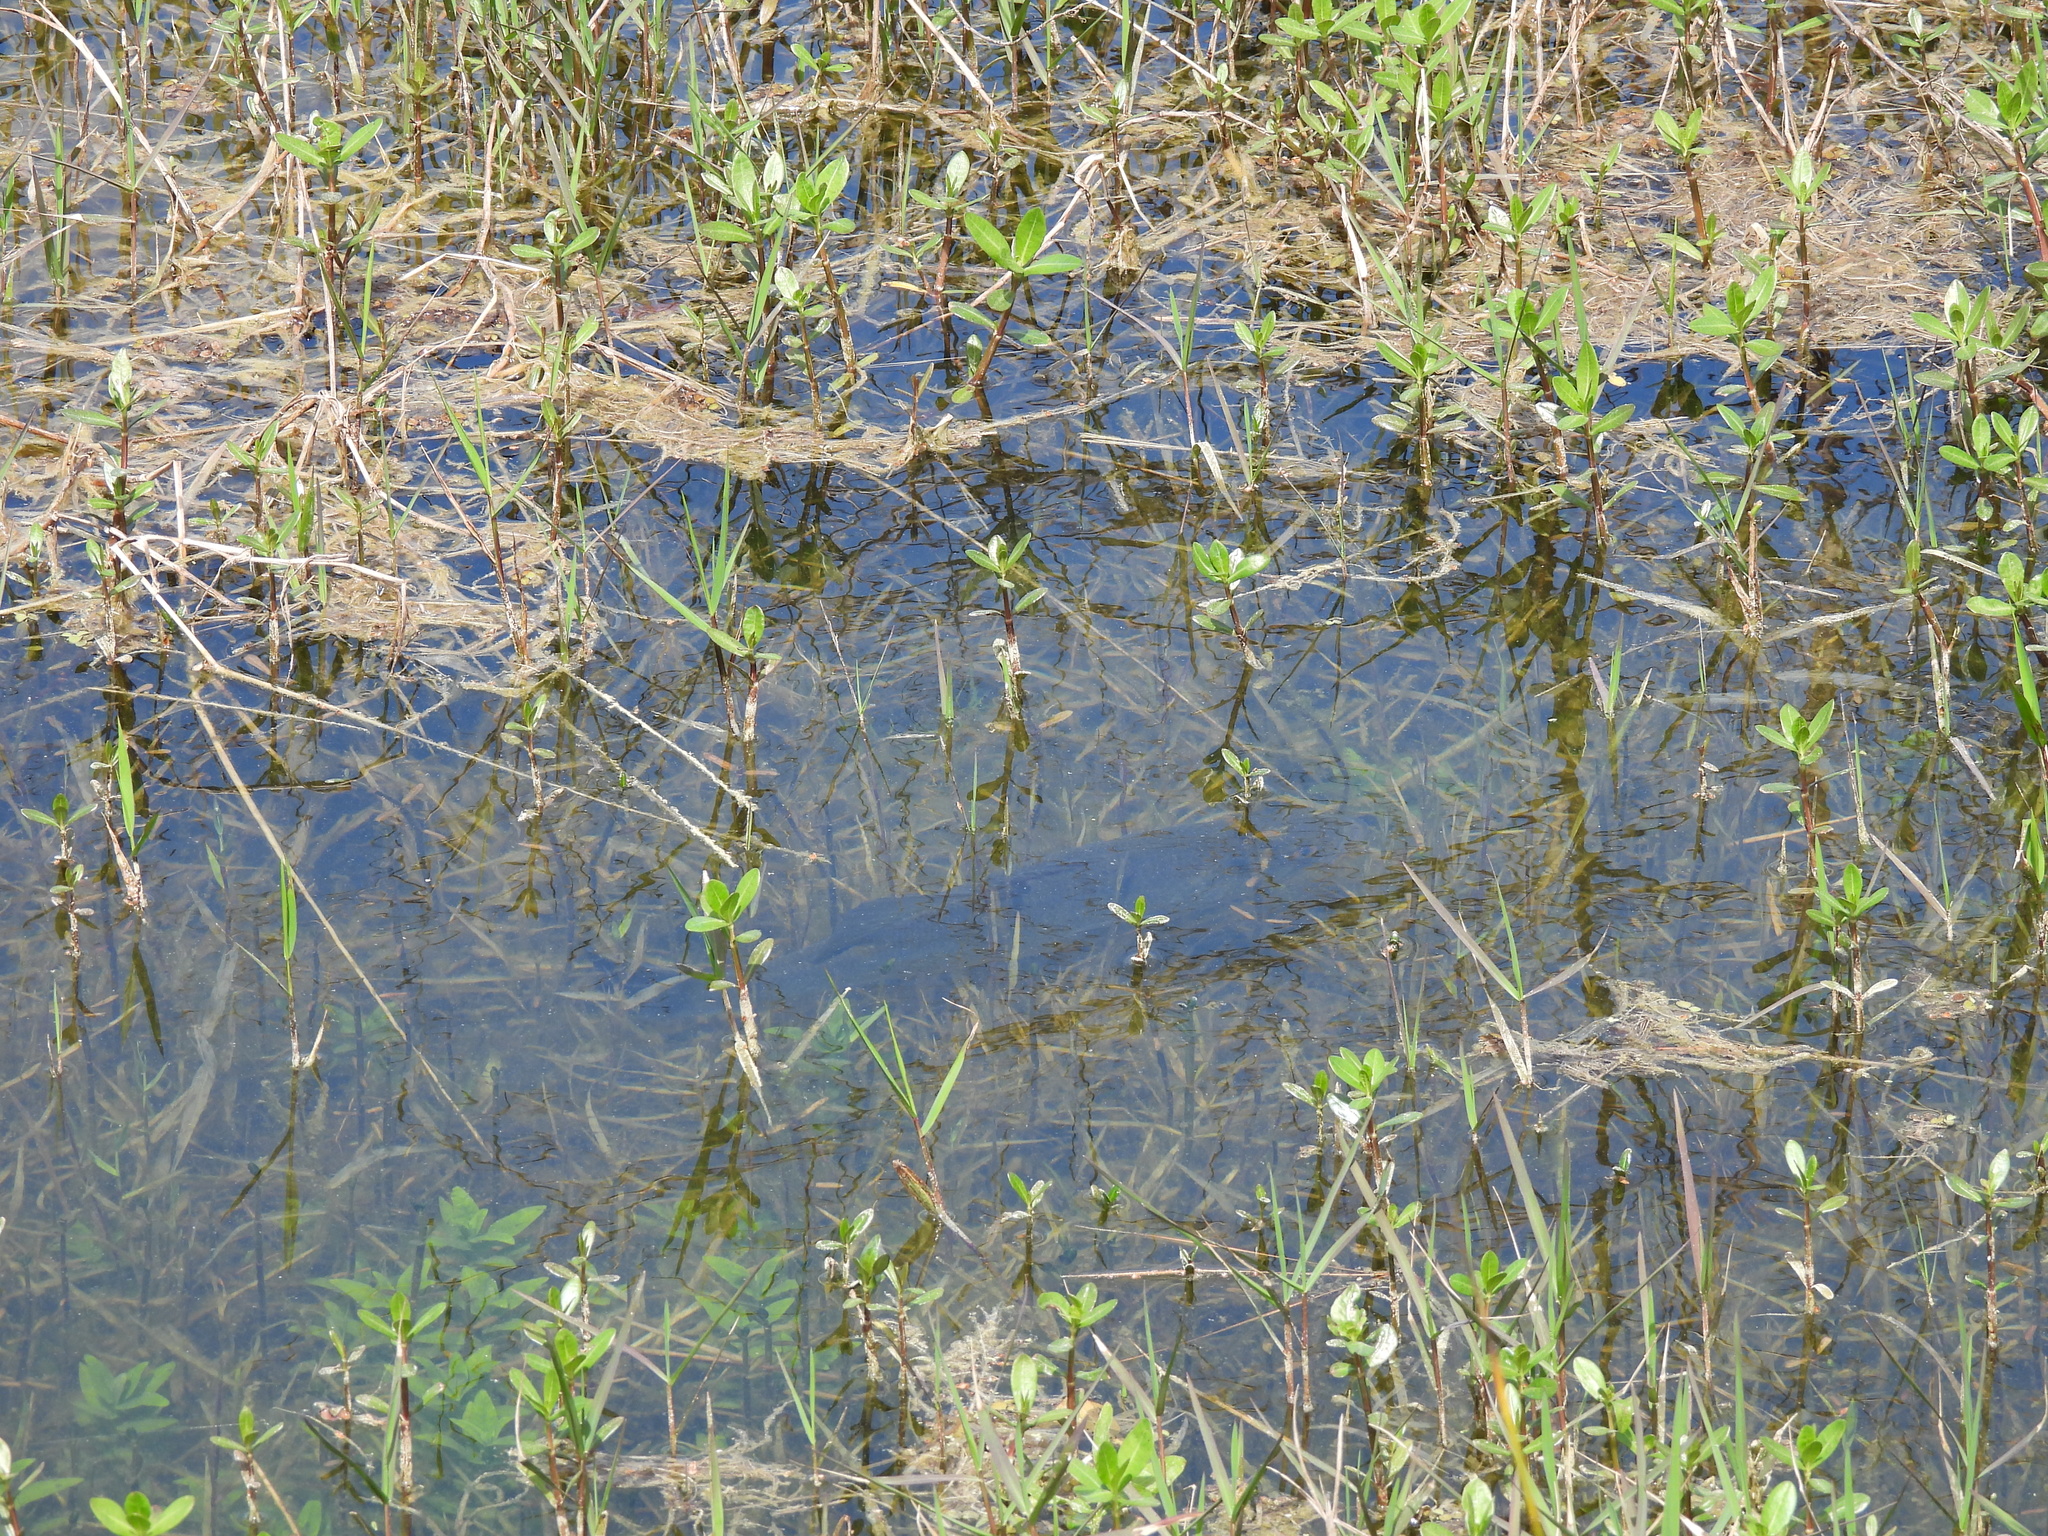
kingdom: Animalia
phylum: Chordata
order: Perciformes
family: Centrarchidae
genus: Micropterus
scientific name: Micropterus
